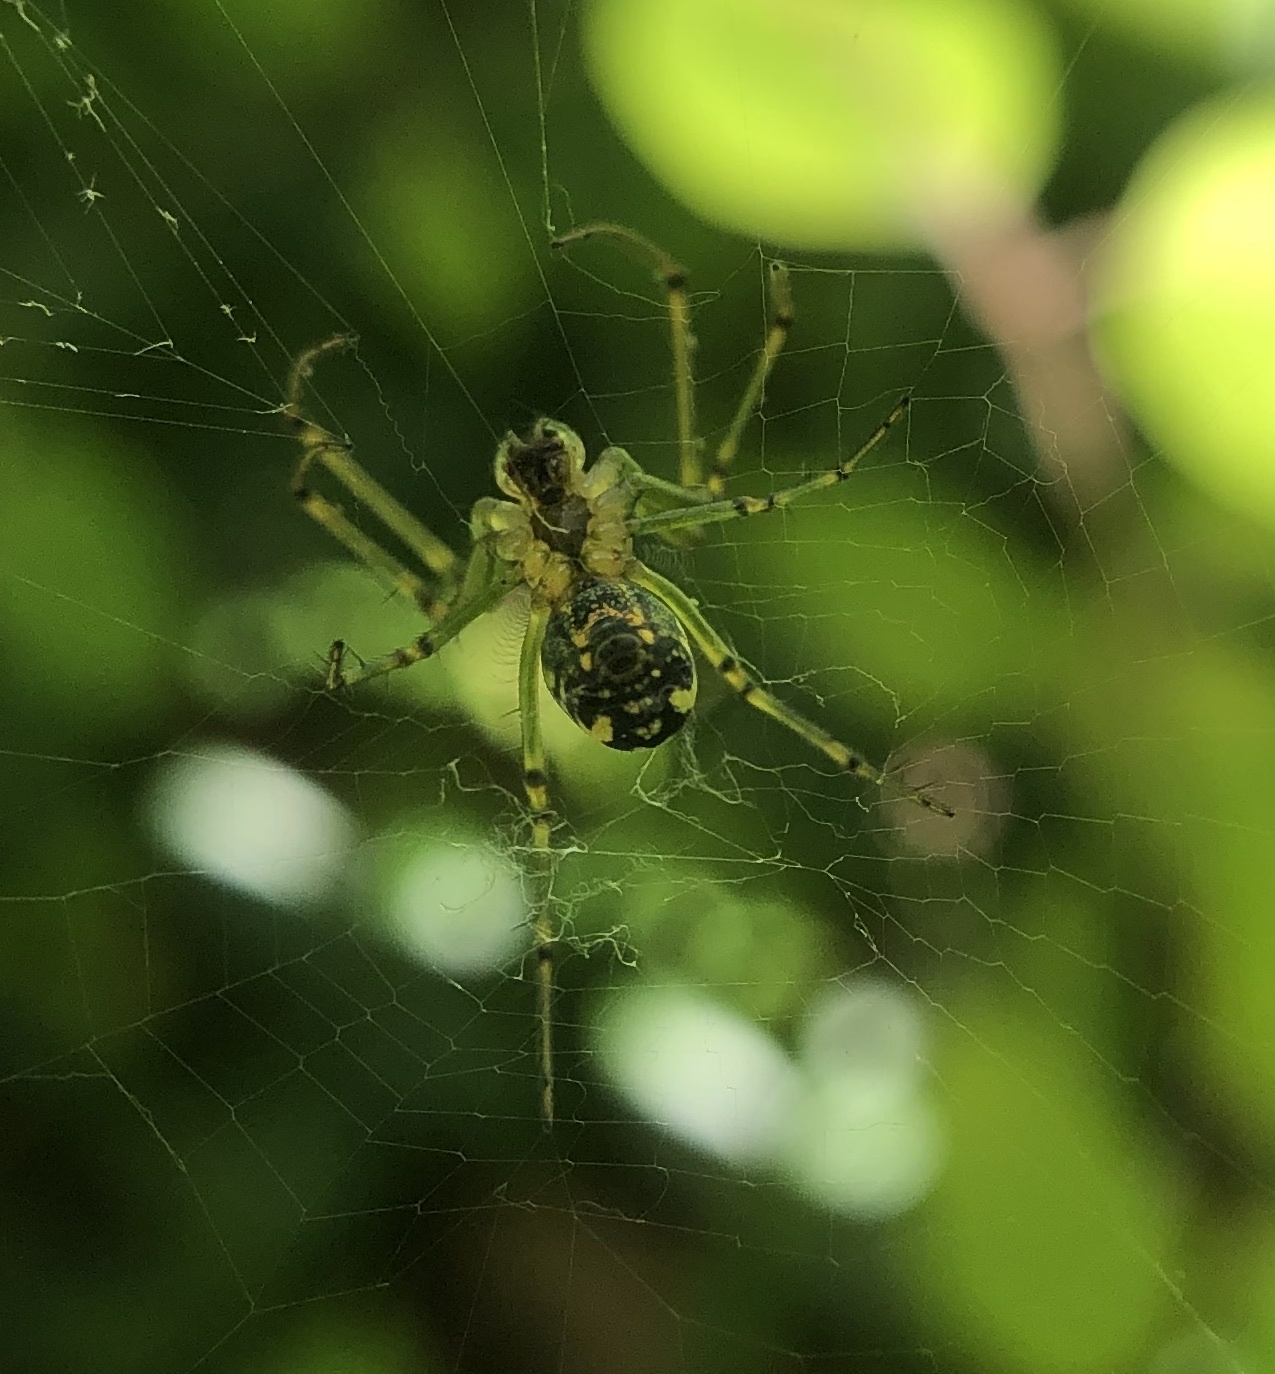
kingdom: Animalia
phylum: Arthropoda
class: Arachnida
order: Araneae
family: Tetragnathidae
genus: Leucauge
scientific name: Leucauge venusta
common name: Longjawed orb weavers
